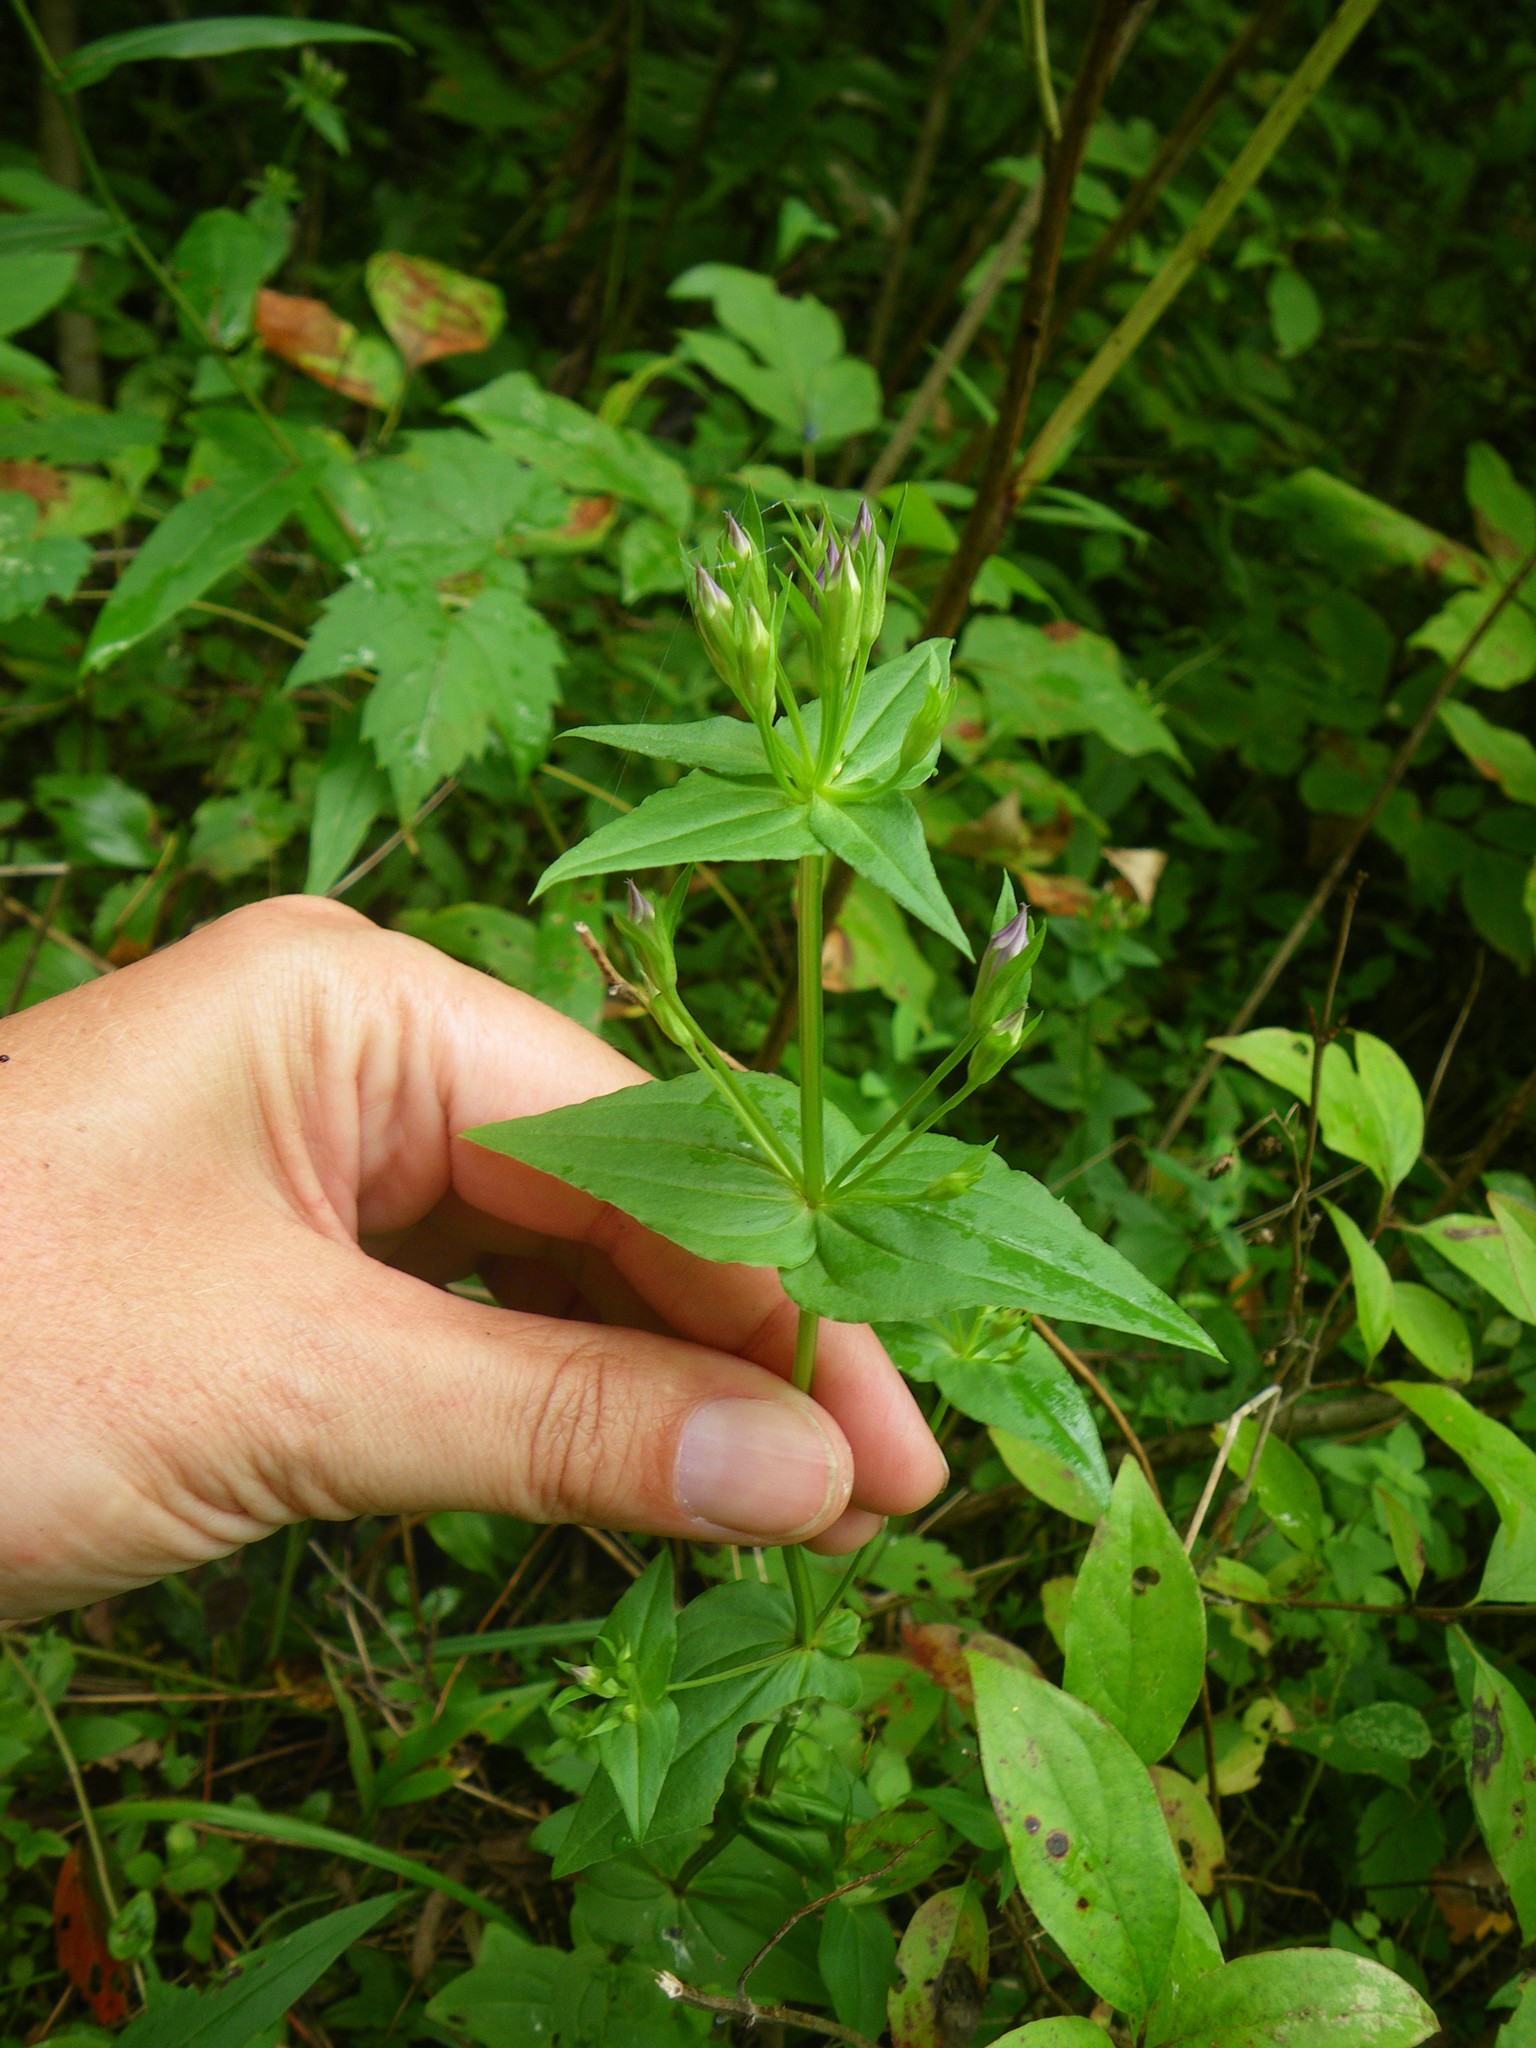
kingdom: Plantae
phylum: Tracheophyta
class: Magnoliopsida
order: Gentianales
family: Gentianaceae
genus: Gentianella
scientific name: Gentianella quinquefolia
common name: Agueweed
